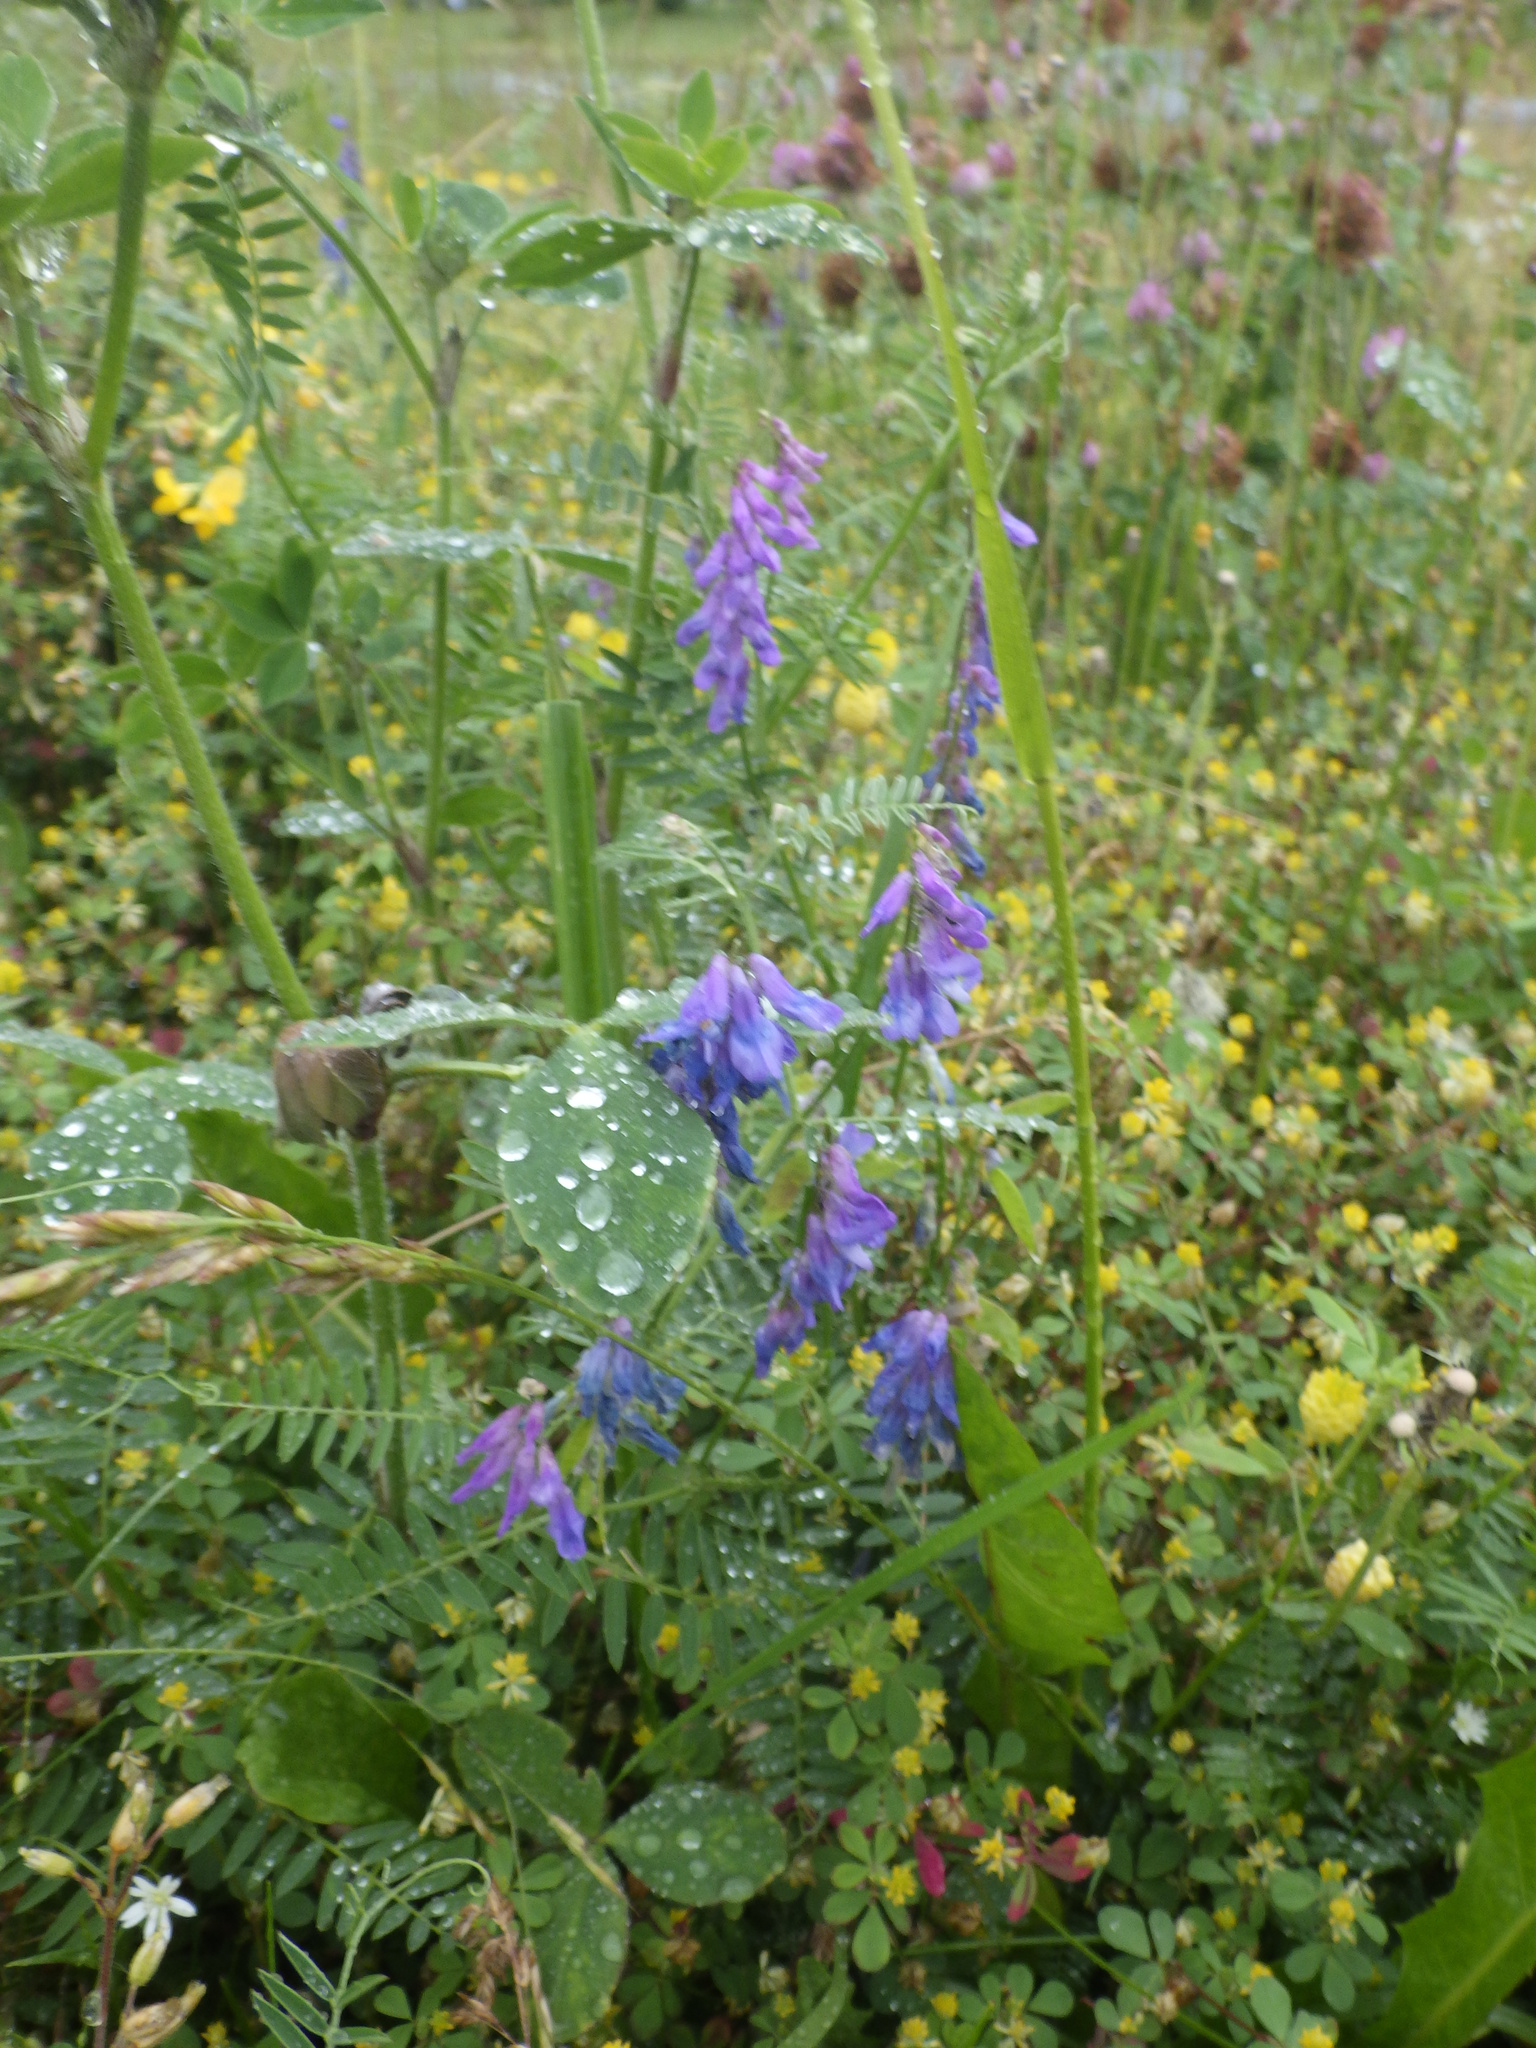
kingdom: Plantae
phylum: Tracheophyta
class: Magnoliopsida
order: Fabales
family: Fabaceae
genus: Vicia
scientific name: Vicia cracca
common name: Bird vetch
